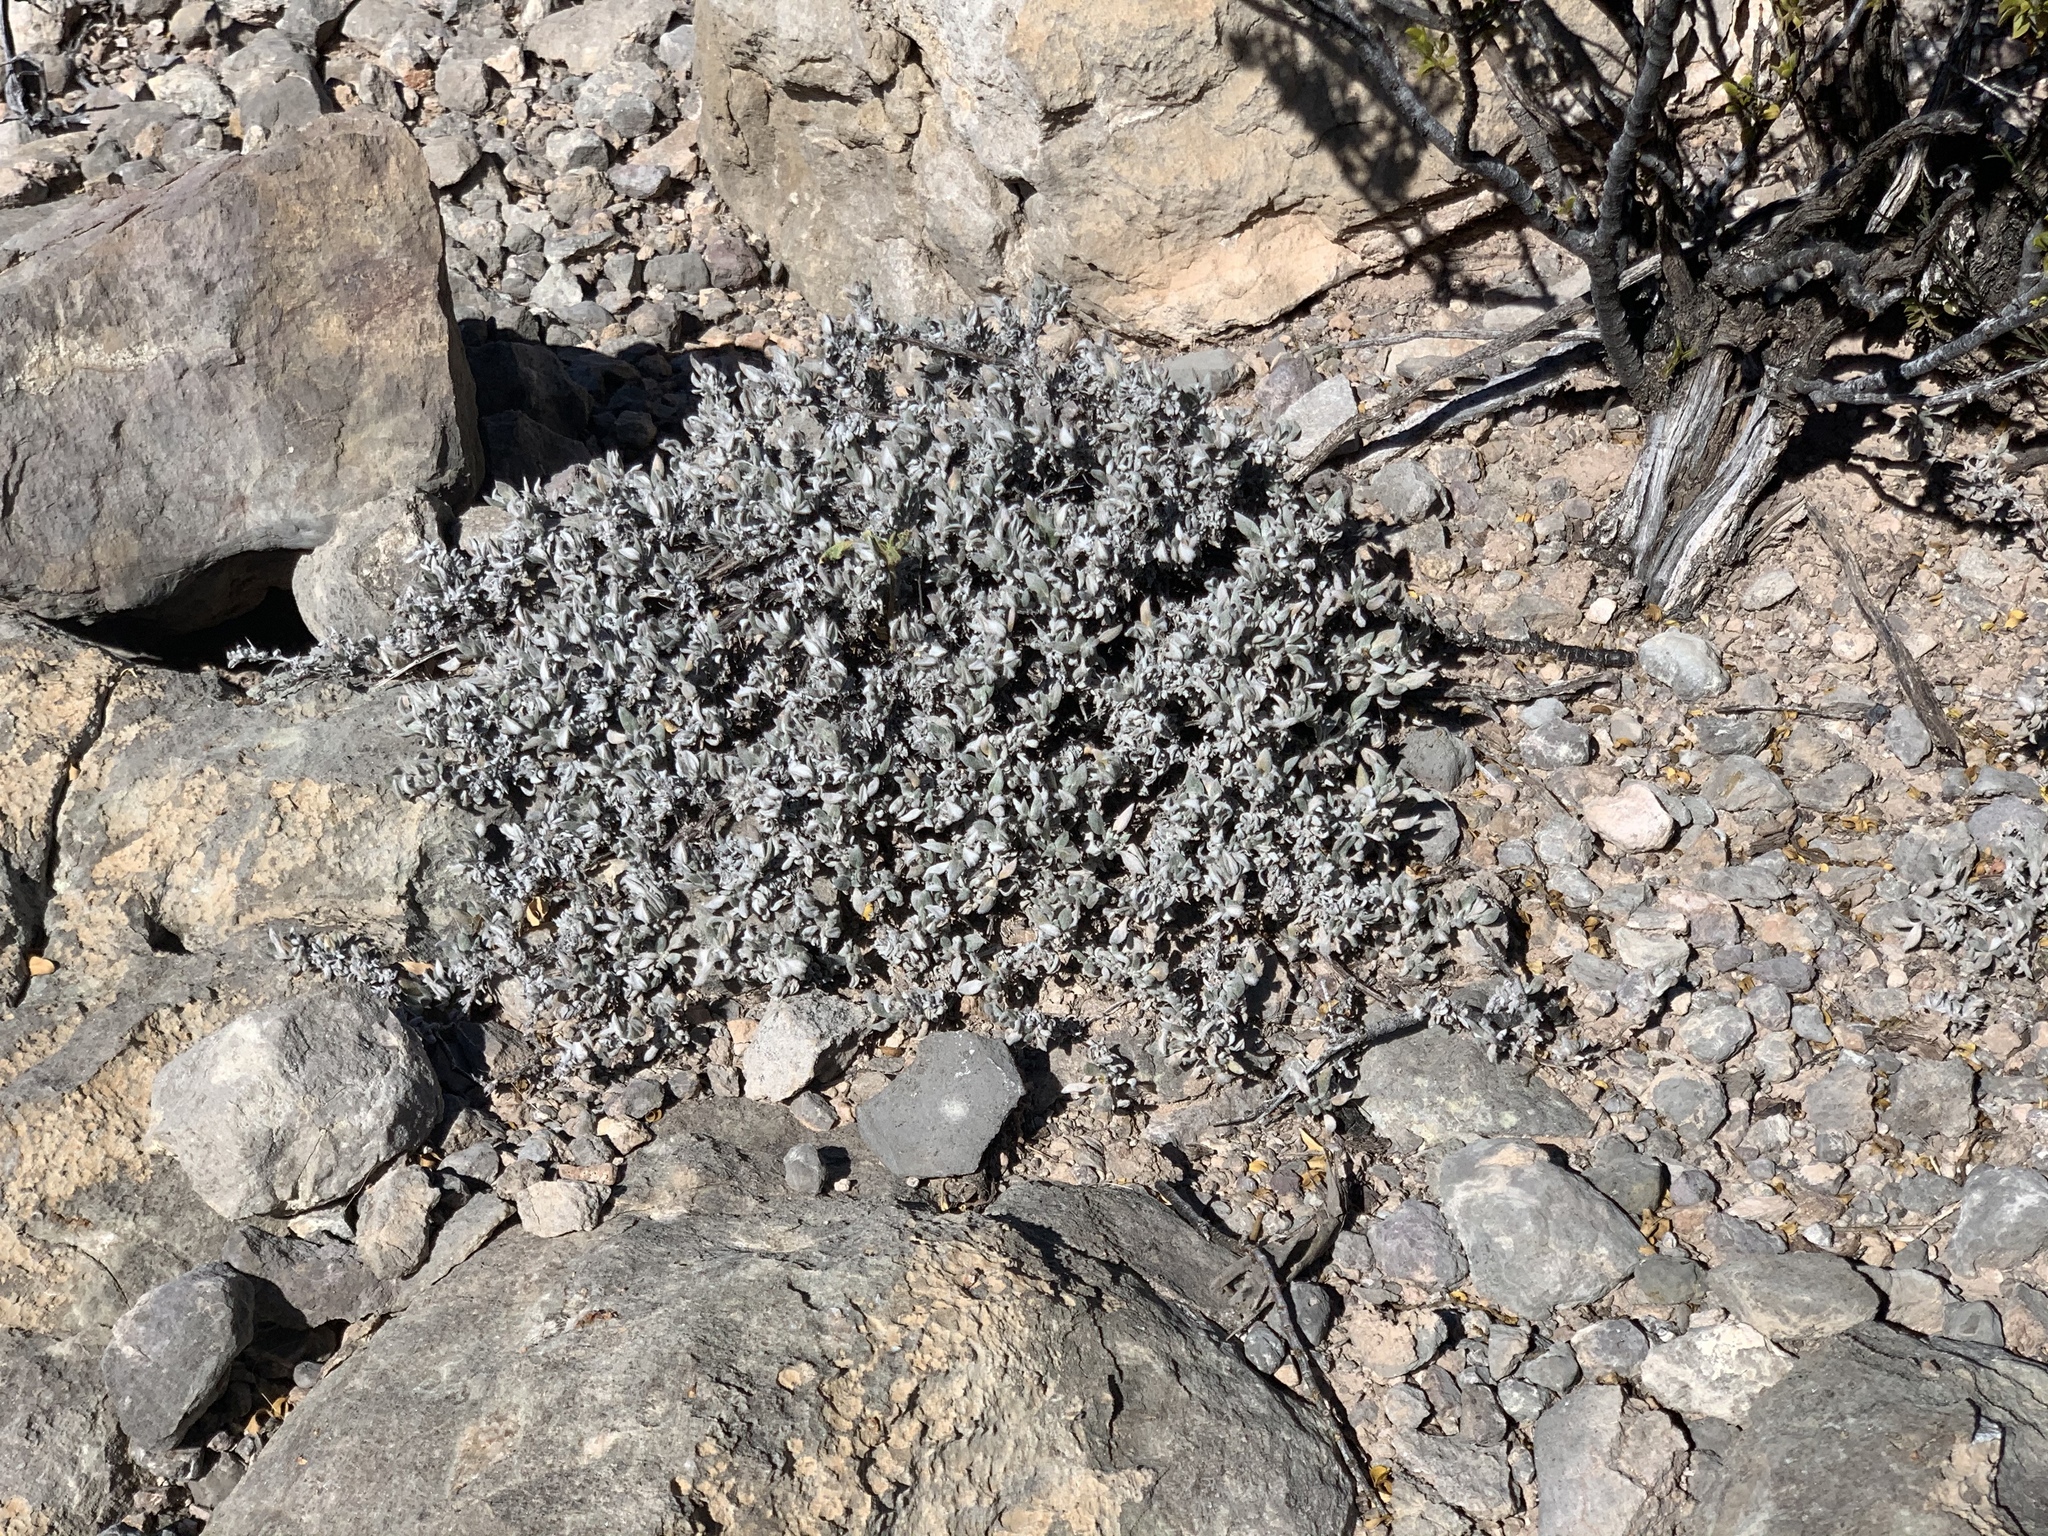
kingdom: Plantae
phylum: Tracheophyta
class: Magnoliopsida
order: Boraginales
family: Ehretiaceae
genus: Tiquilia
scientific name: Tiquilia canescens
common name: Hairy tiquilia
